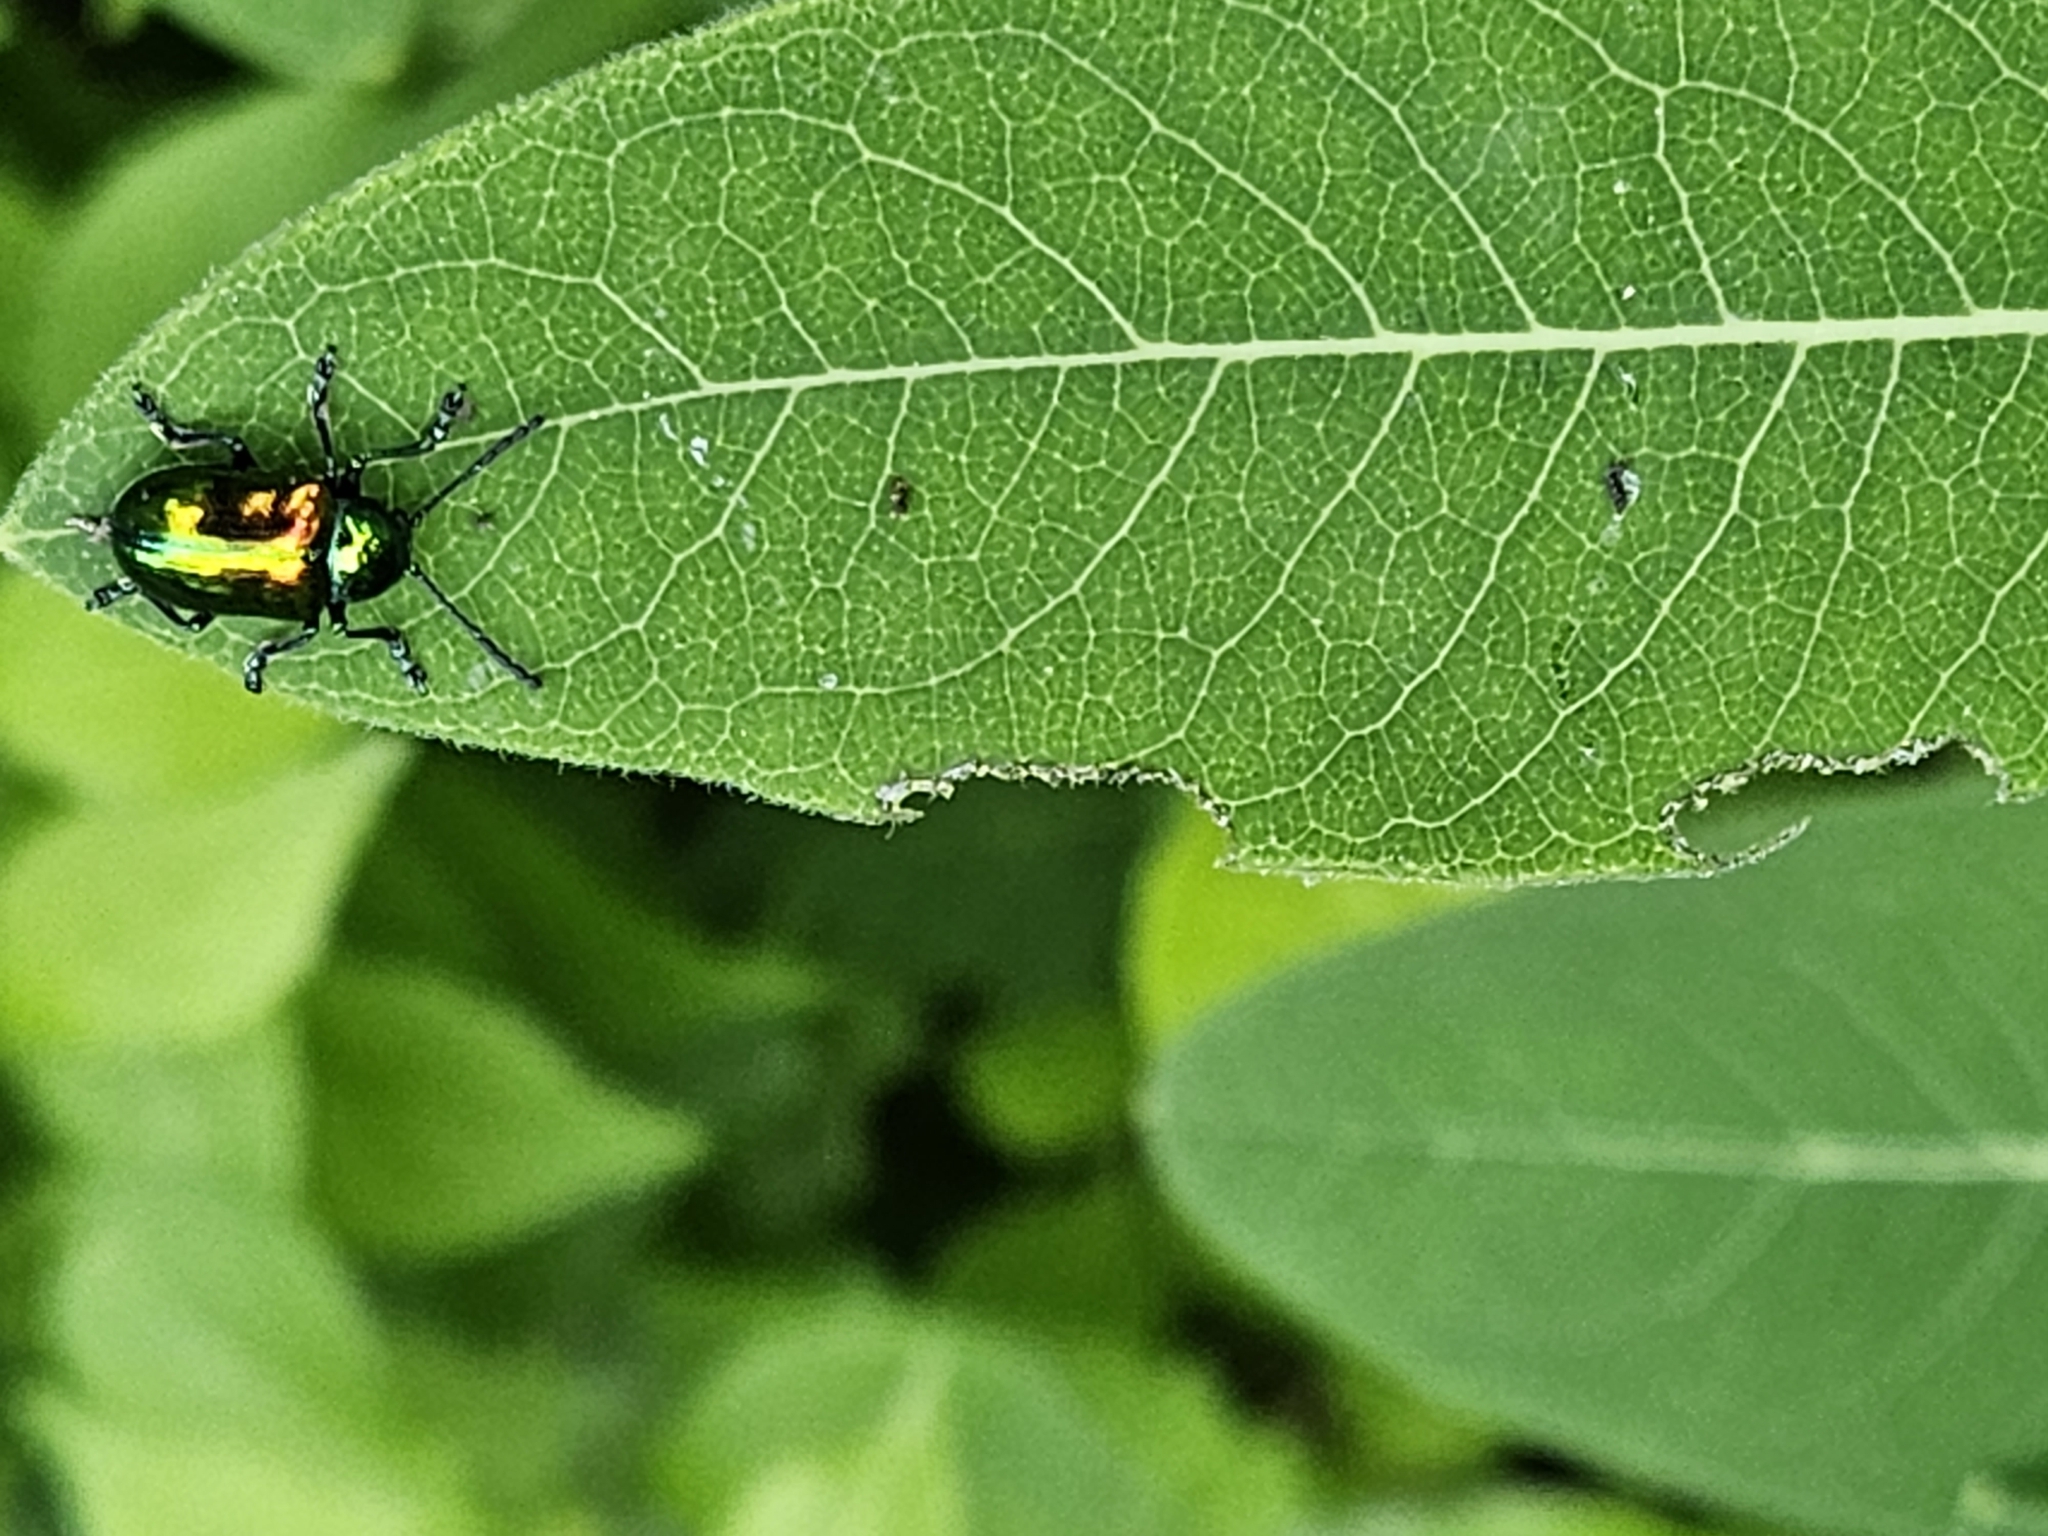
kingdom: Animalia
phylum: Arthropoda
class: Insecta
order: Coleoptera
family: Chrysomelidae
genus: Chrysochus
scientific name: Chrysochus auratus
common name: Dogbane leaf beetle
